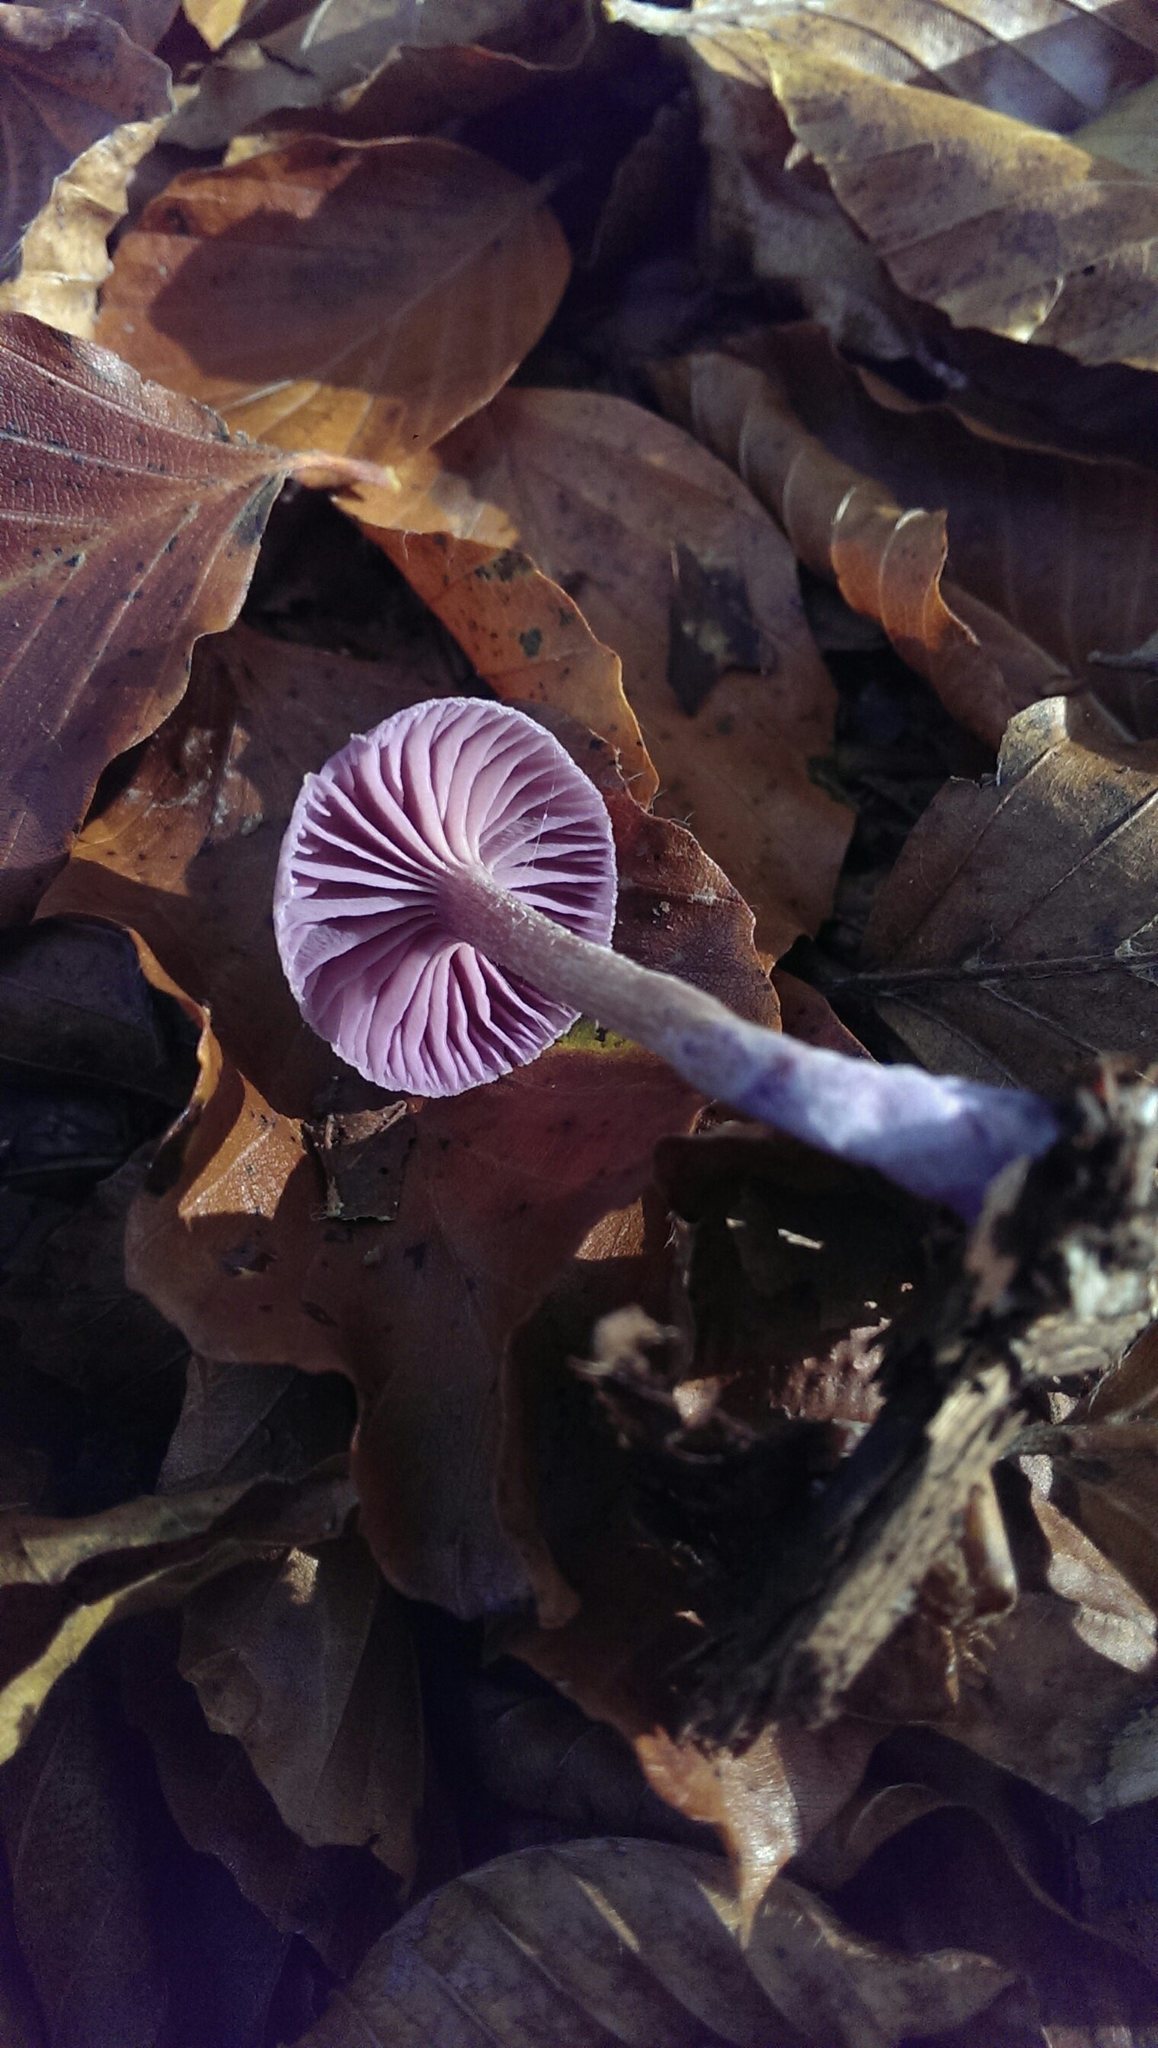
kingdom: Fungi
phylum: Basidiomycota
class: Agaricomycetes
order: Agaricales
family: Hydnangiaceae
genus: Laccaria
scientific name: Laccaria amethystina
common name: Amethyst deceiver
